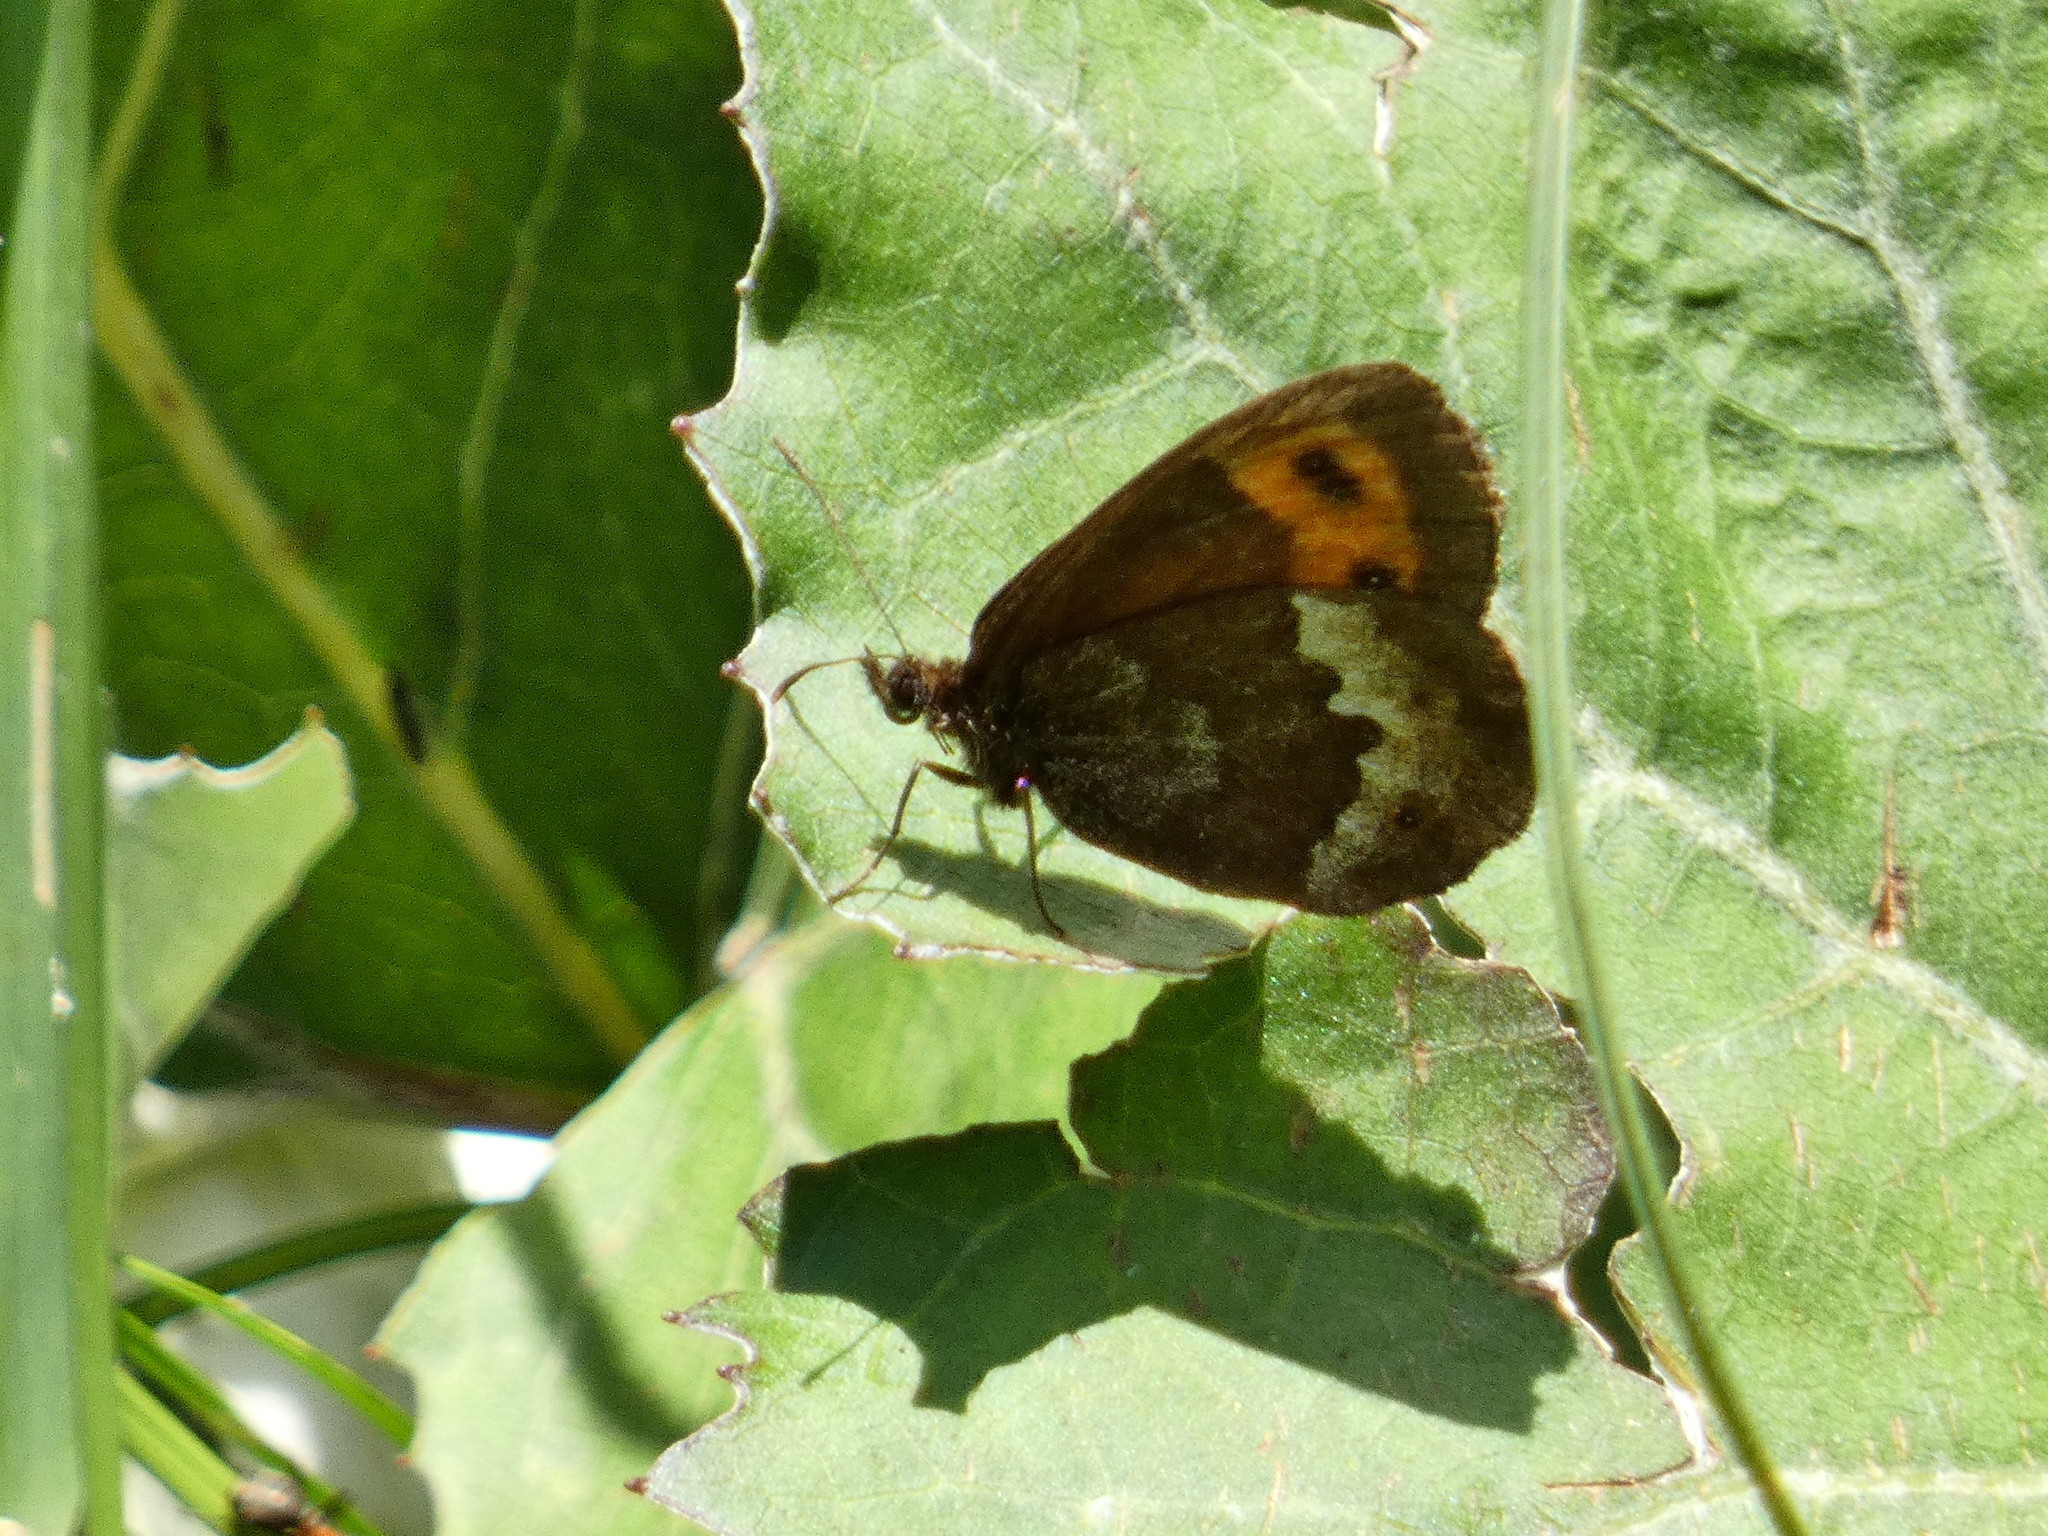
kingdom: Animalia
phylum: Arthropoda
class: Insecta
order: Lepidoptera
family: Nymphalidae
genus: Erebia
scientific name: Erebia euryale
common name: Large ringlet
